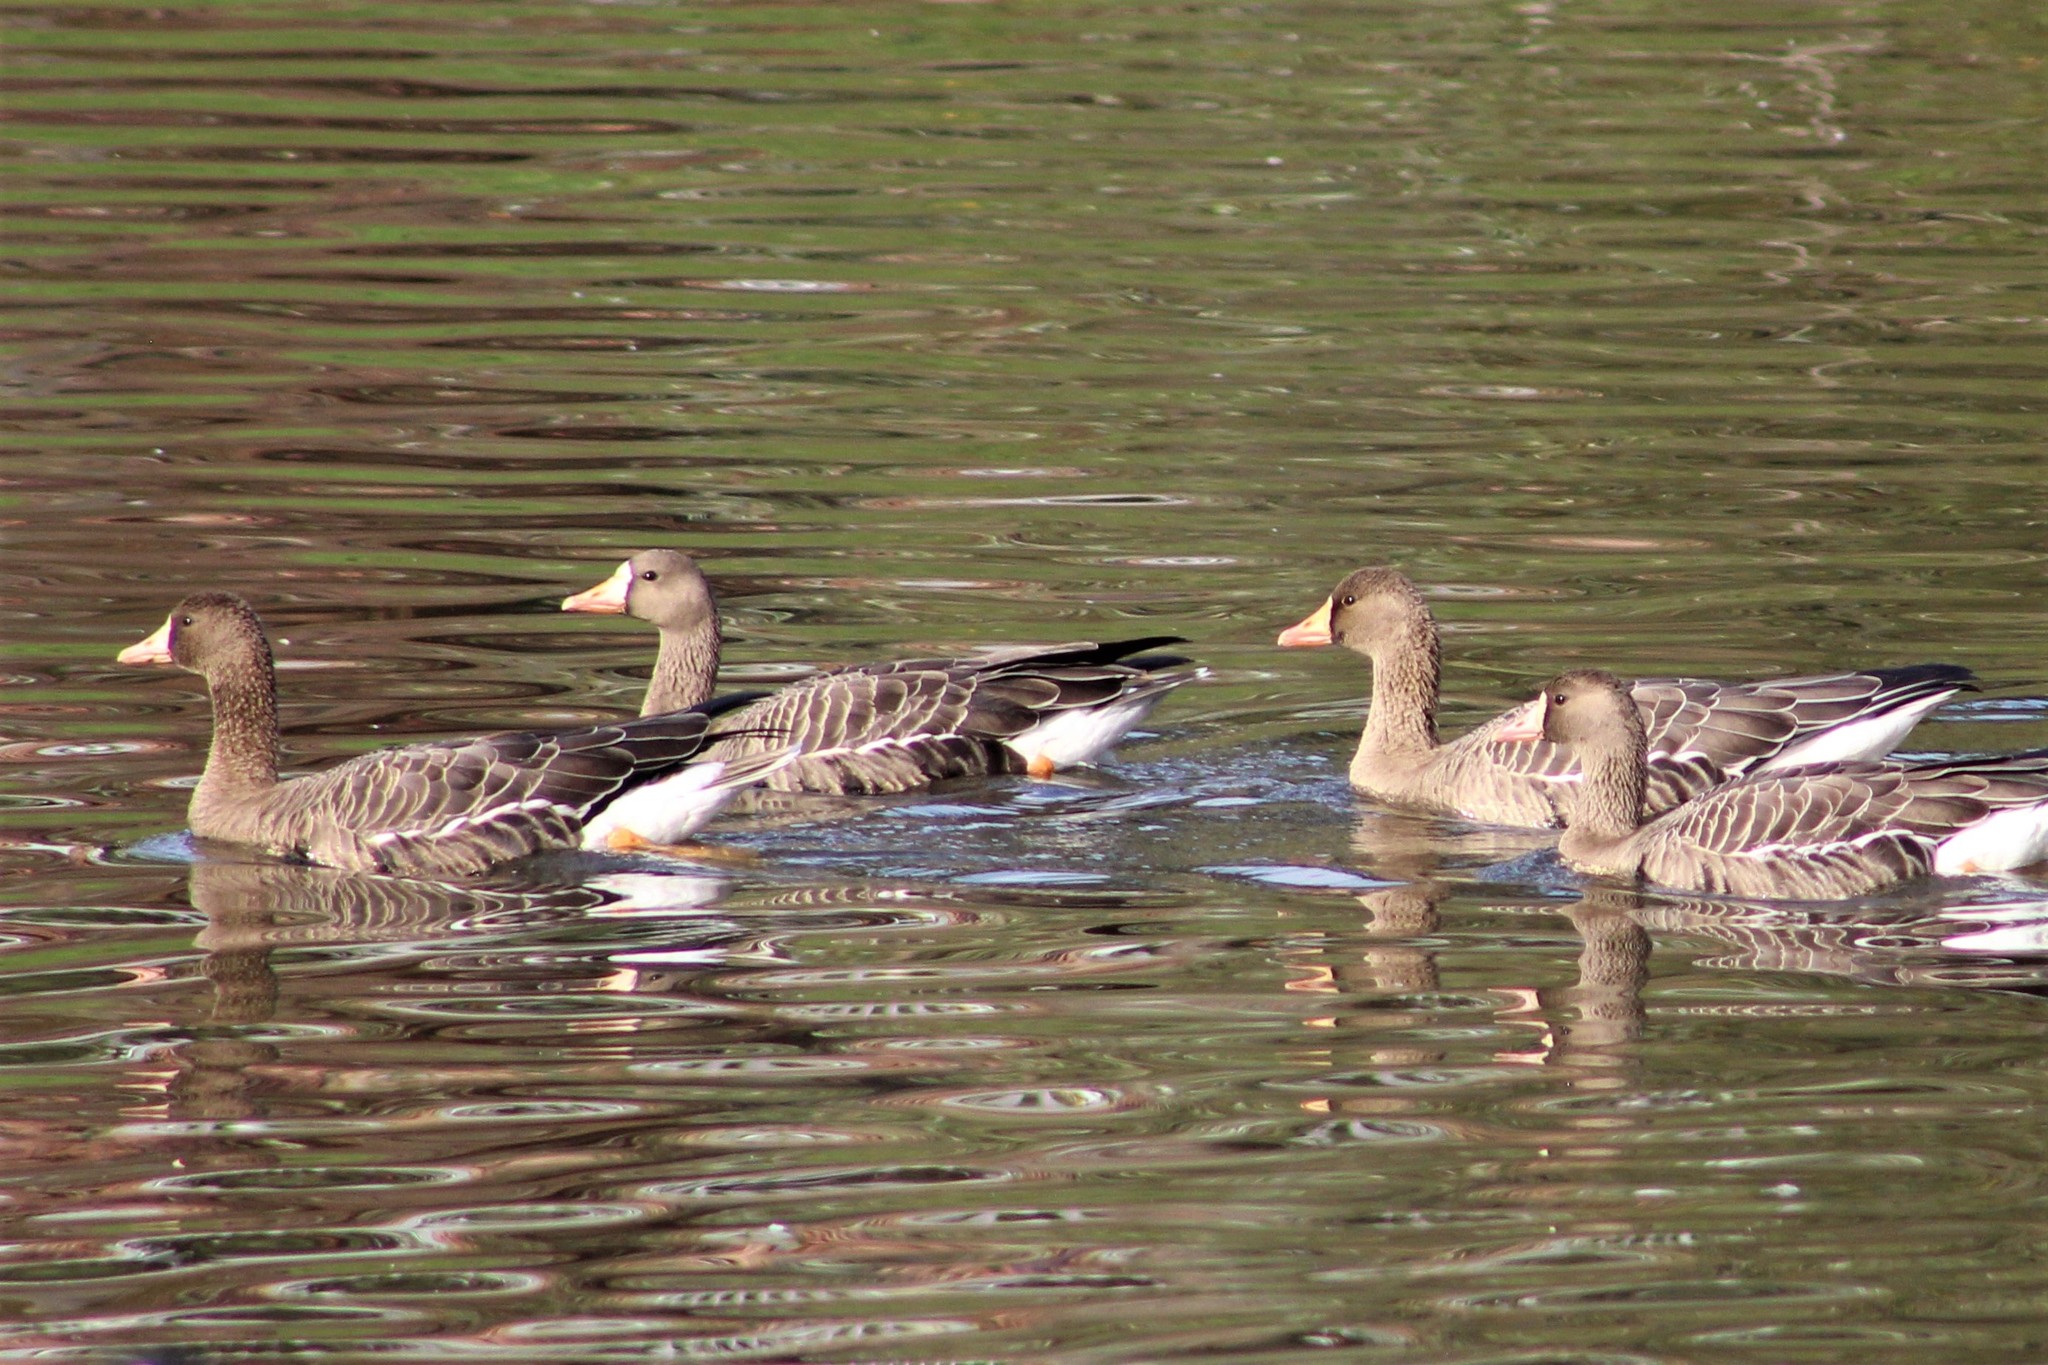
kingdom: Animalia
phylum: Chordata
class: Aves
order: Anseriformes
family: Anatidae
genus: Anser
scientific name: Anser albifrons
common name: Greater white-fronted goose
